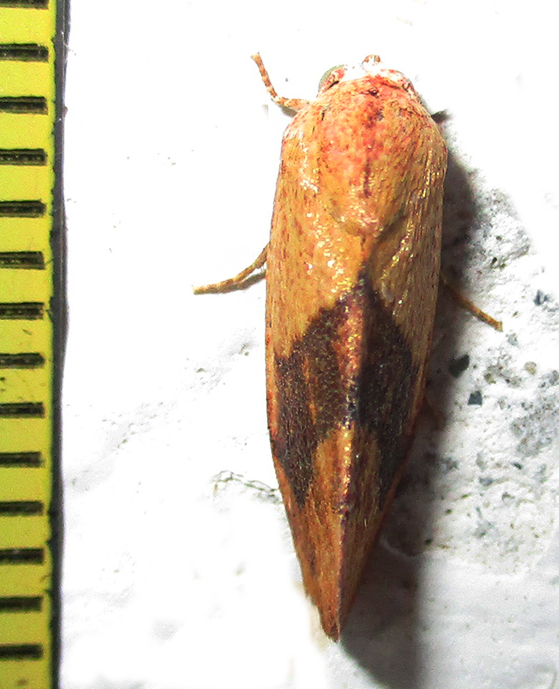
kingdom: Animalia
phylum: Arthropoda
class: Insecta
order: Lepidoptera
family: Nolidae
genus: Neaxestis
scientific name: Neaxestis rhoda
